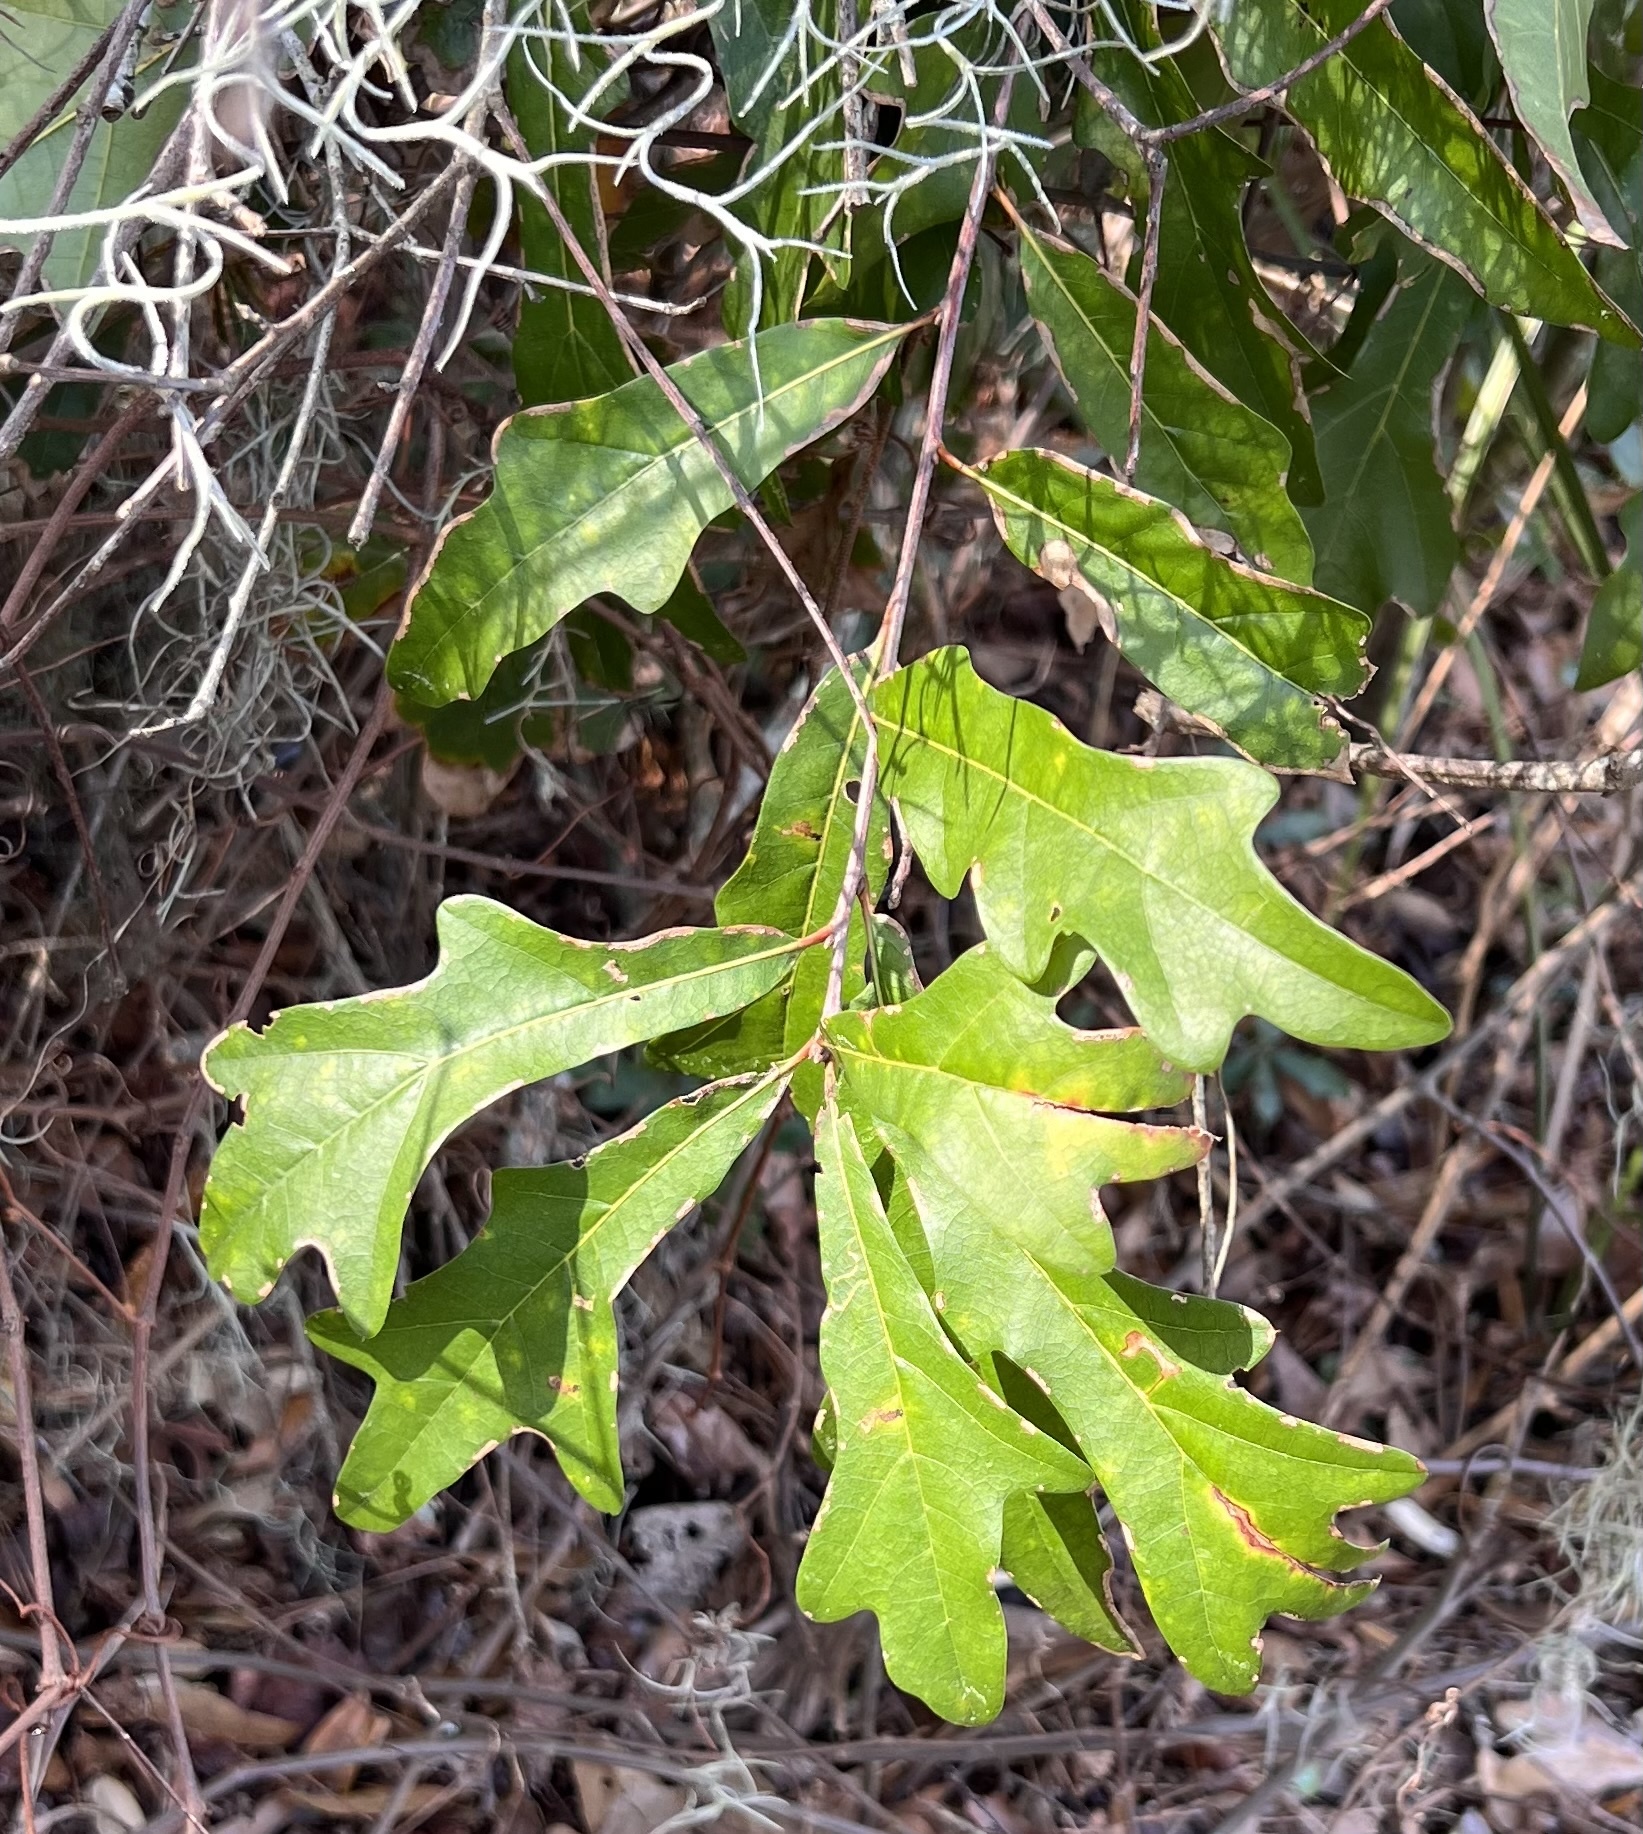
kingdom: Plantae
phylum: Tracheophyta
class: Magnoliopsida
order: Fagales
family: Fagaceae
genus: Quercus
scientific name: Quercus nigra
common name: Water oak
